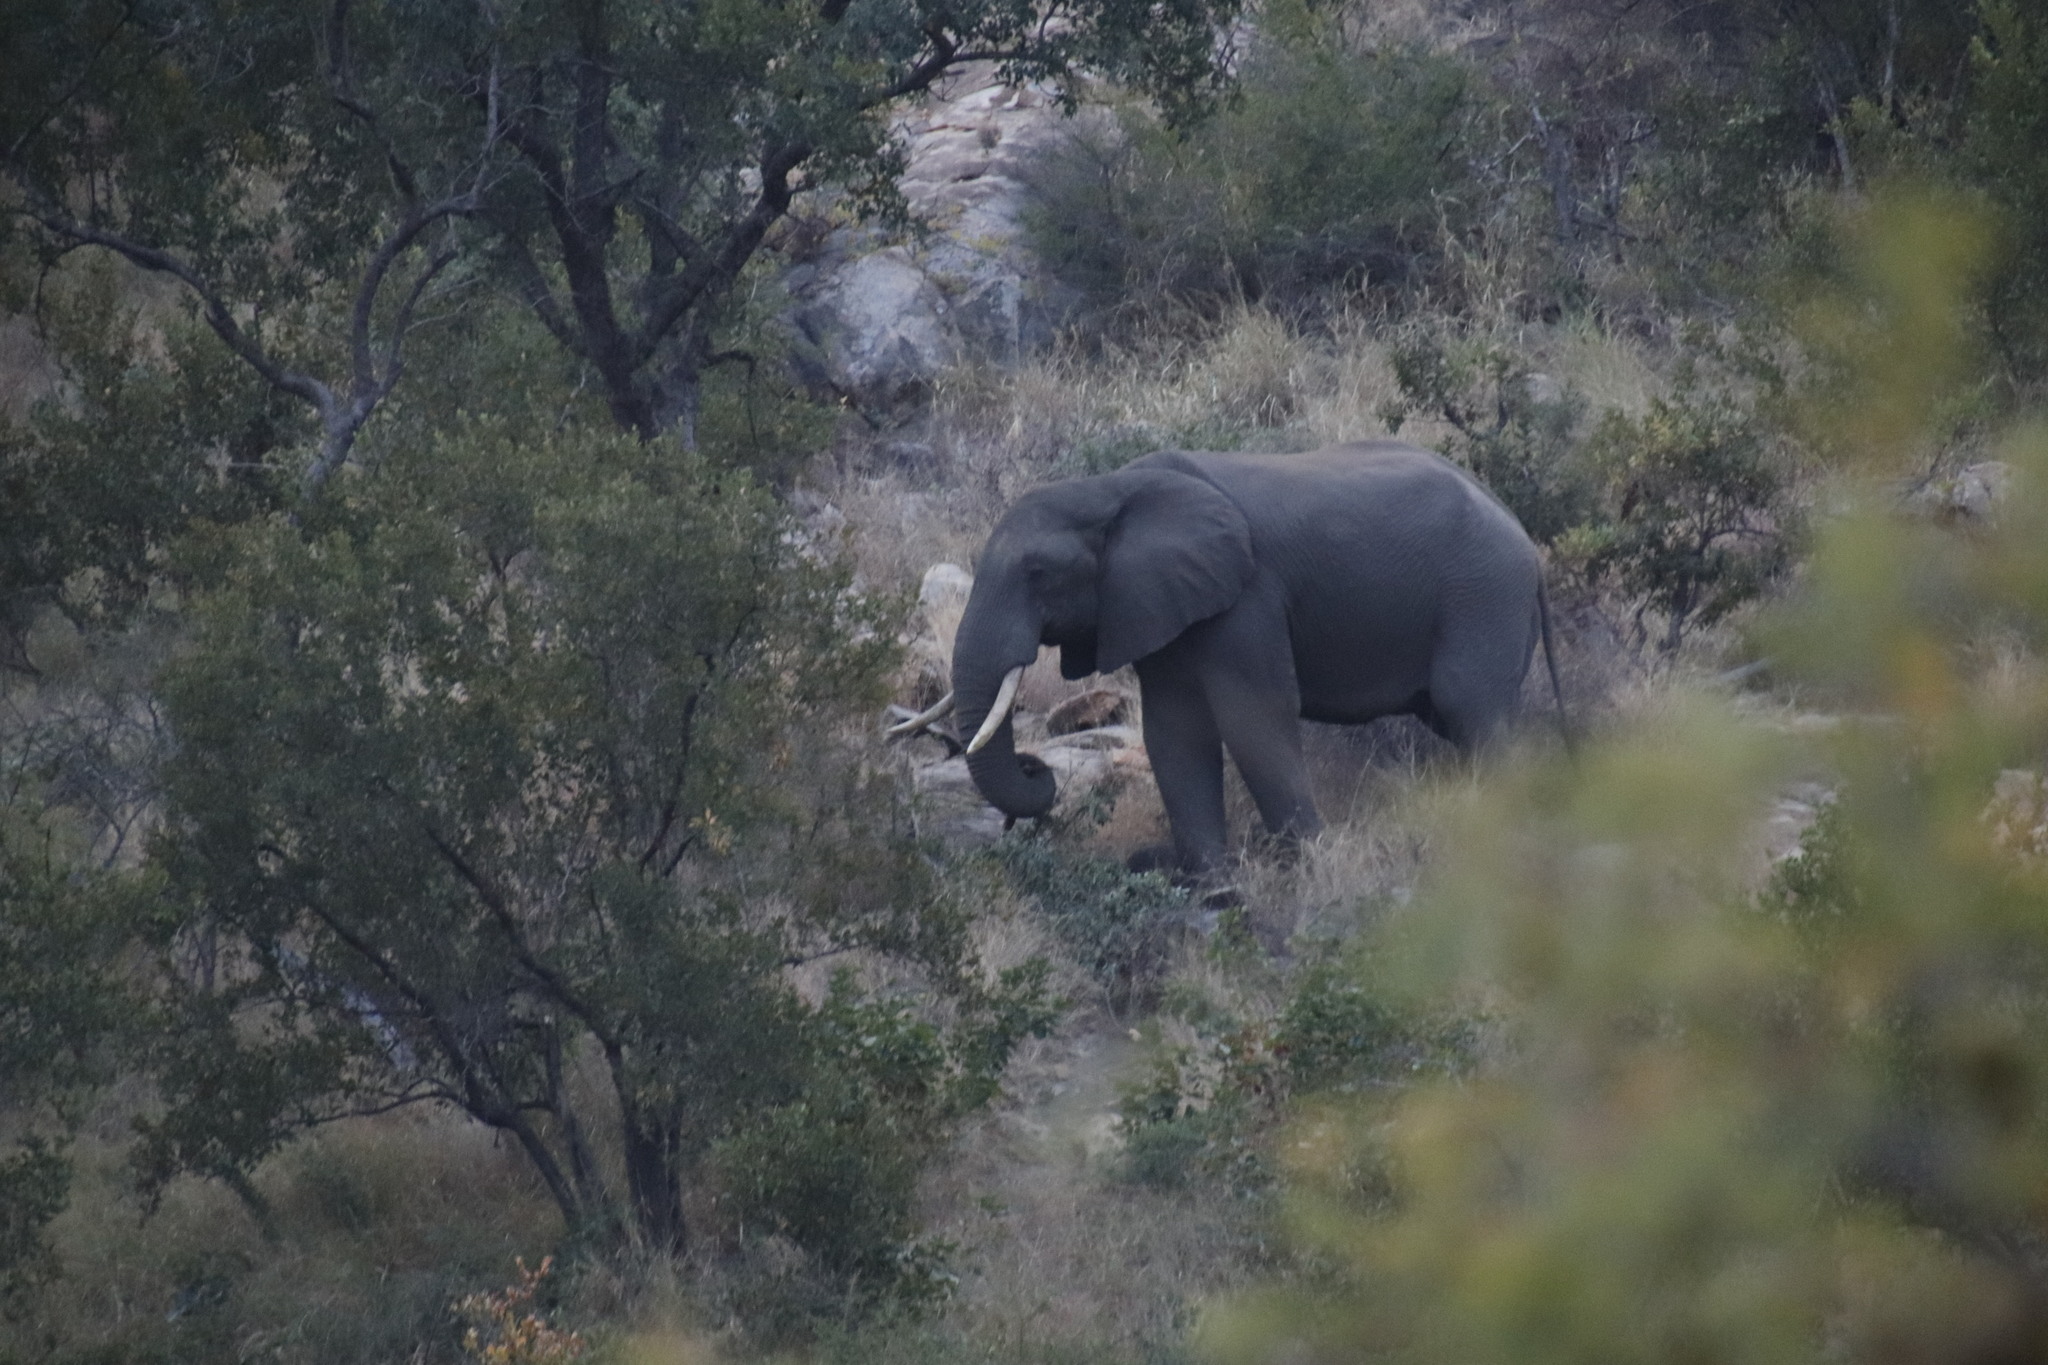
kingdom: Animalia
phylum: Chordata
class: Mammalia
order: Proboscidea
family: Elephantidae
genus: Loxodonta
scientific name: Loxodonta africana
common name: African elephant
